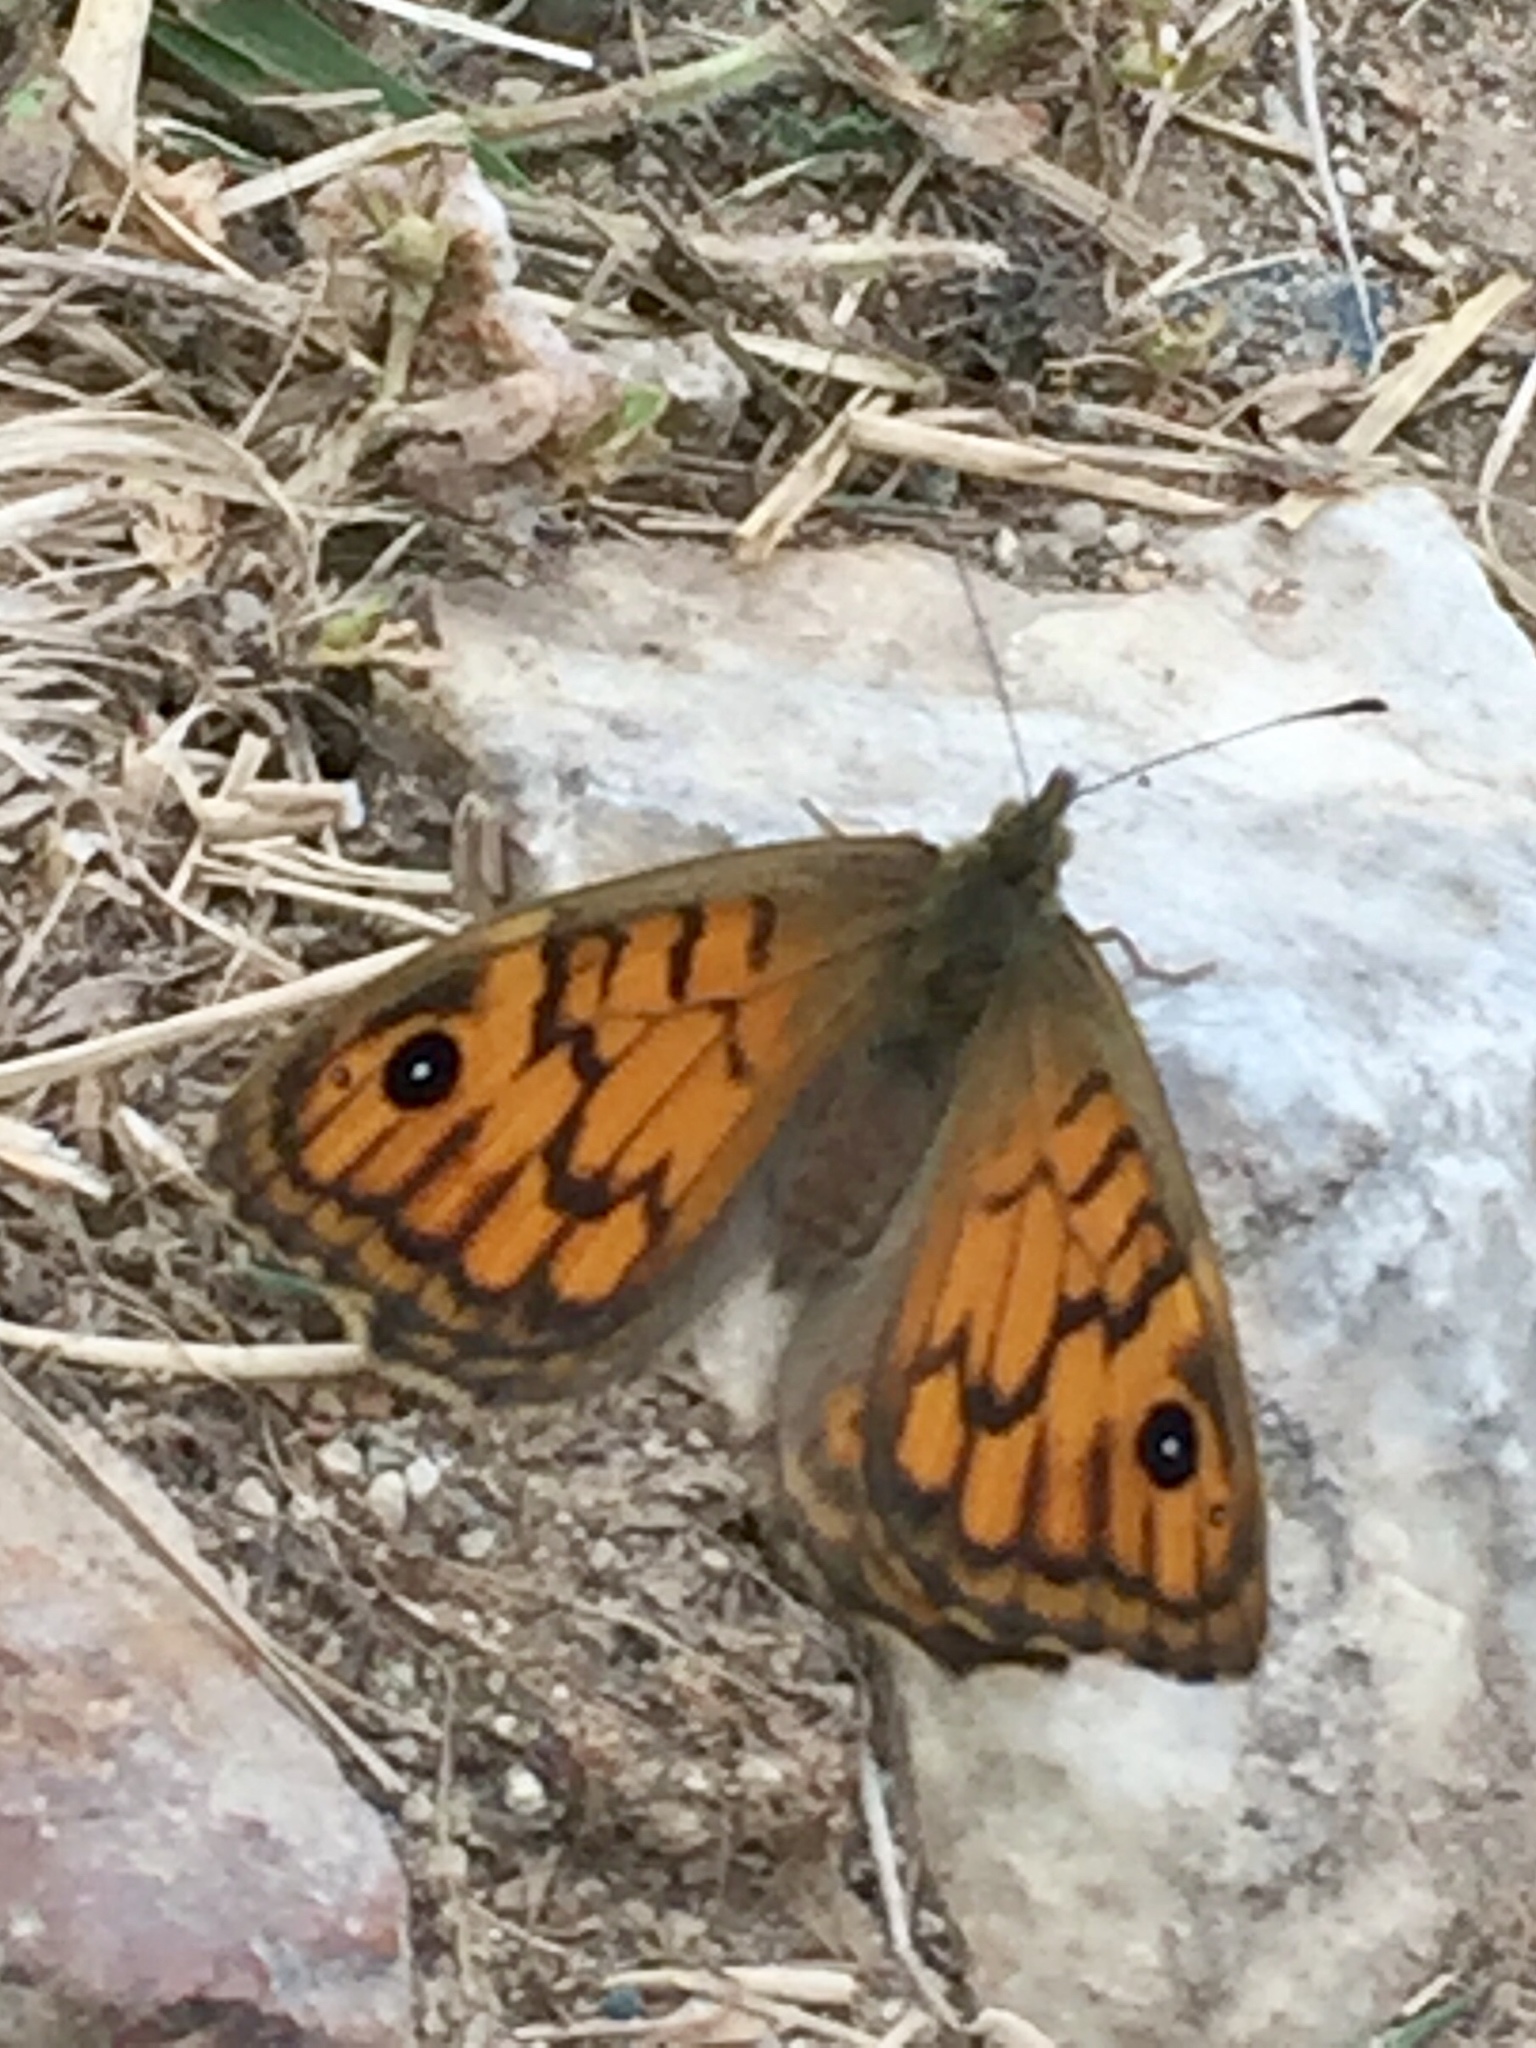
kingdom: Animalia
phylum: Arthropoda
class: Insecta
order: Lepidoptera
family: Nymphalidae
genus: Pararge
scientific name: Pararge Lasiommata megera
